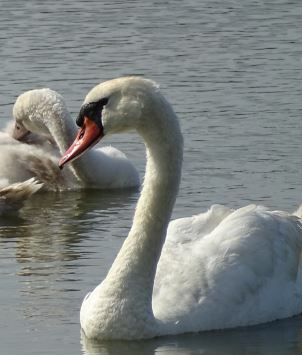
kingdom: Animalia
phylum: Chordata
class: Aves
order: Anseriformes
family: Anatidae
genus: Cygnus
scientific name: Cygnus olor
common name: Mute swan
